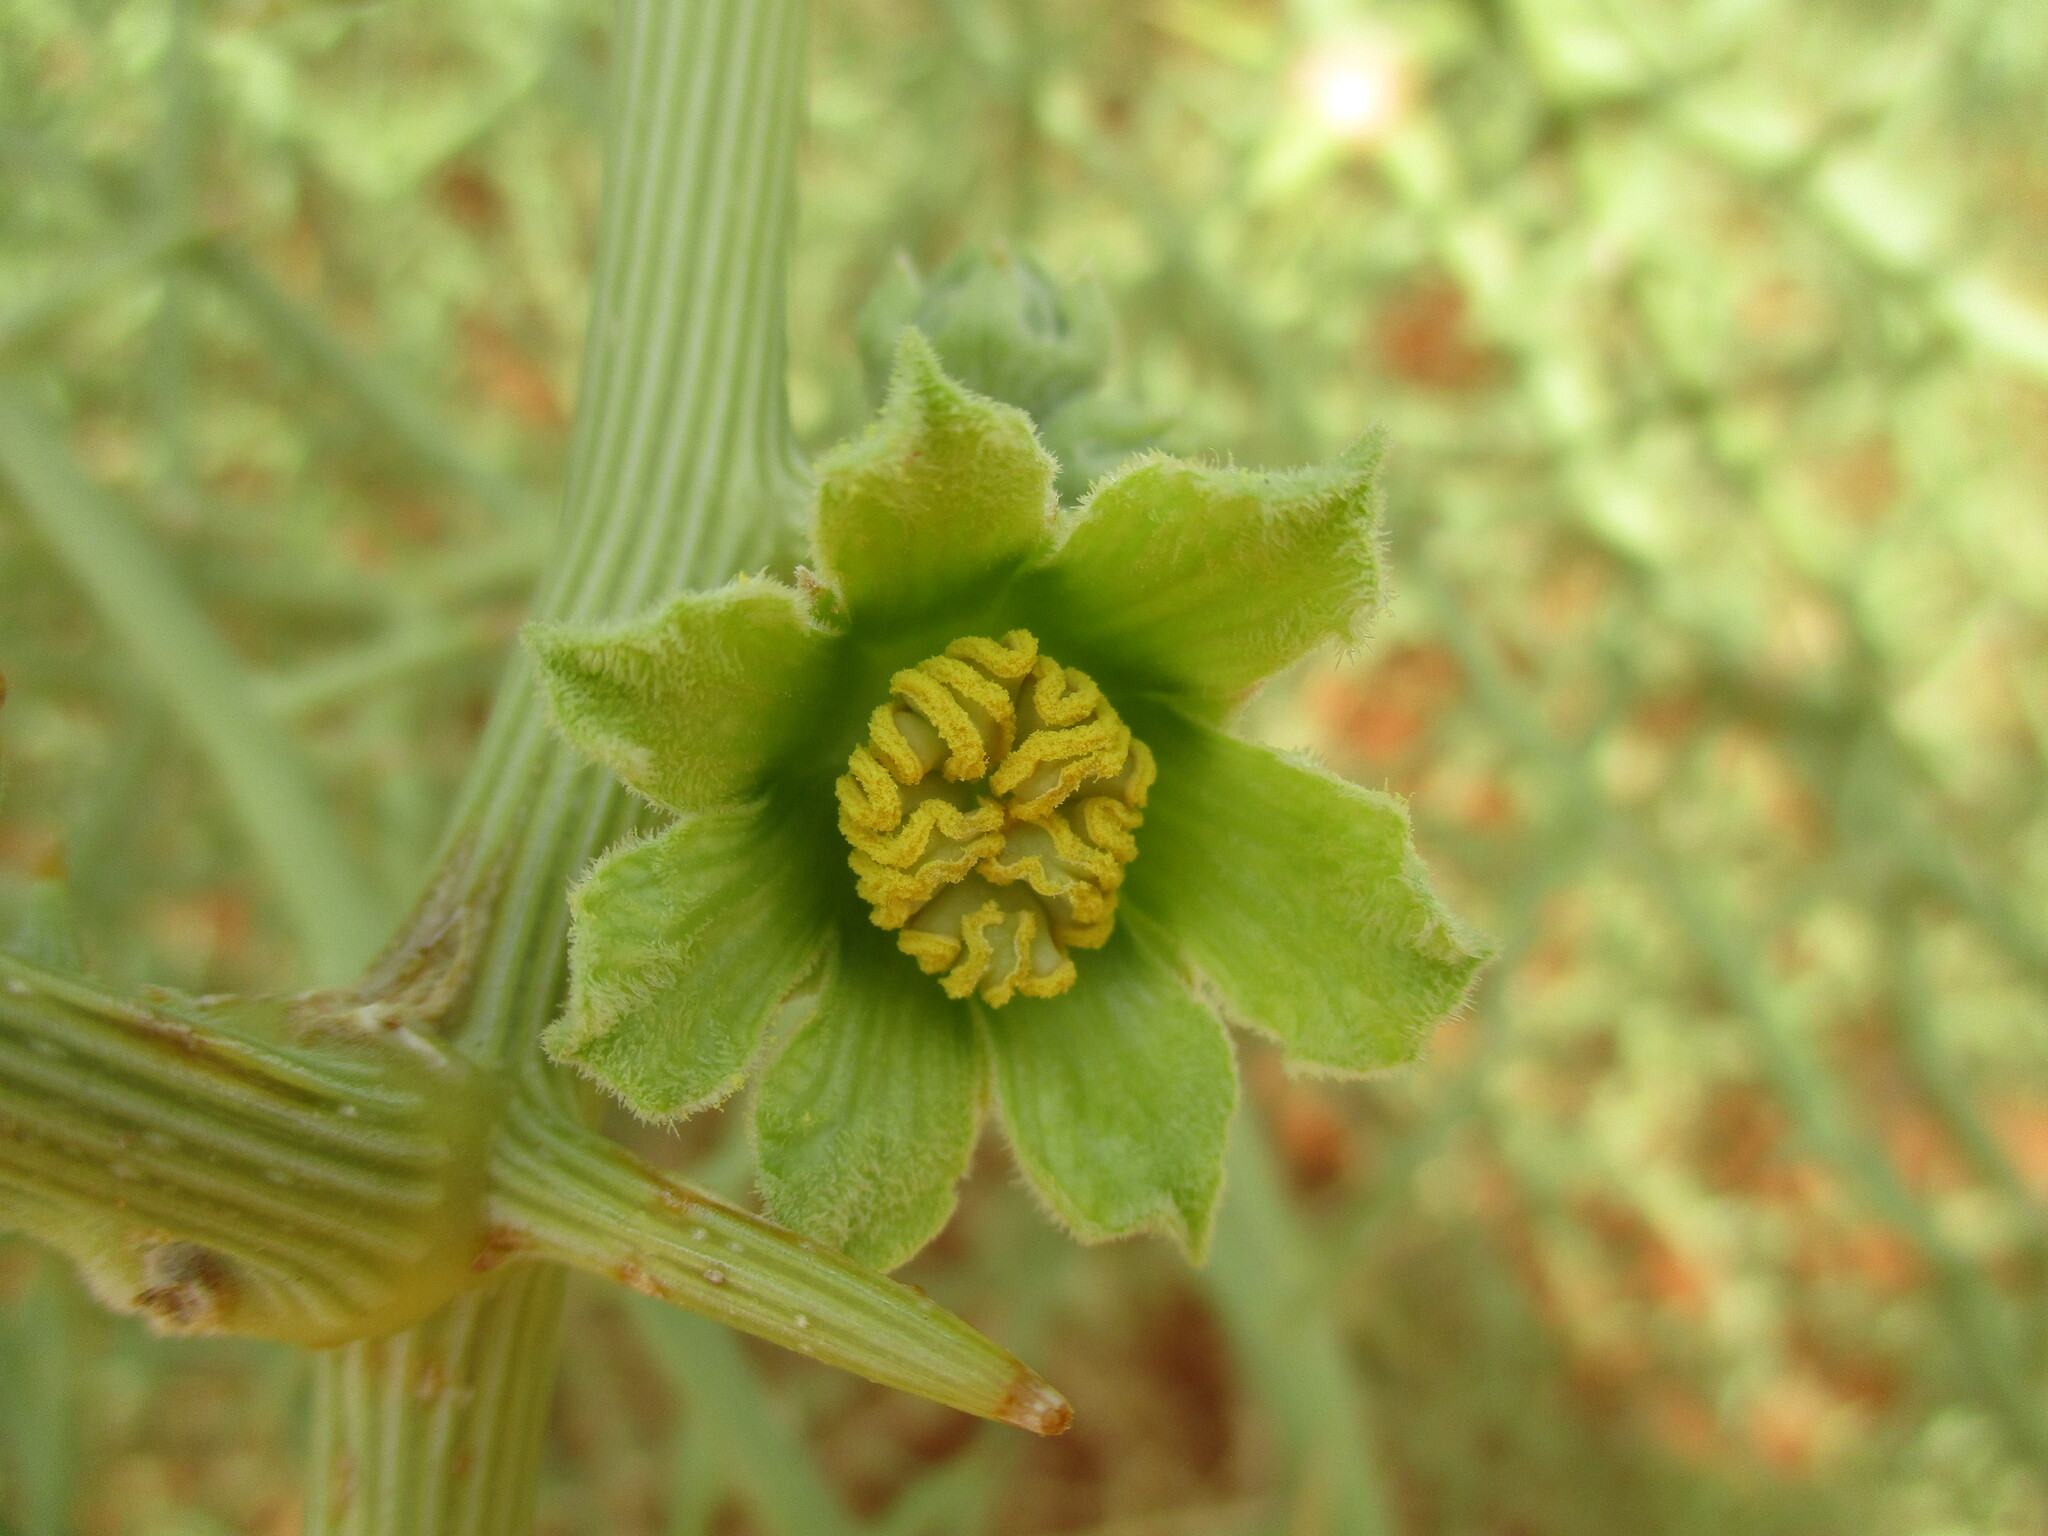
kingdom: Plantae
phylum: Tracheophyta
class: Magnoliopsida
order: Cucurbitales
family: Cucurbitaceae
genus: Acanthosicyos
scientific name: Acanthosicyos horridus
